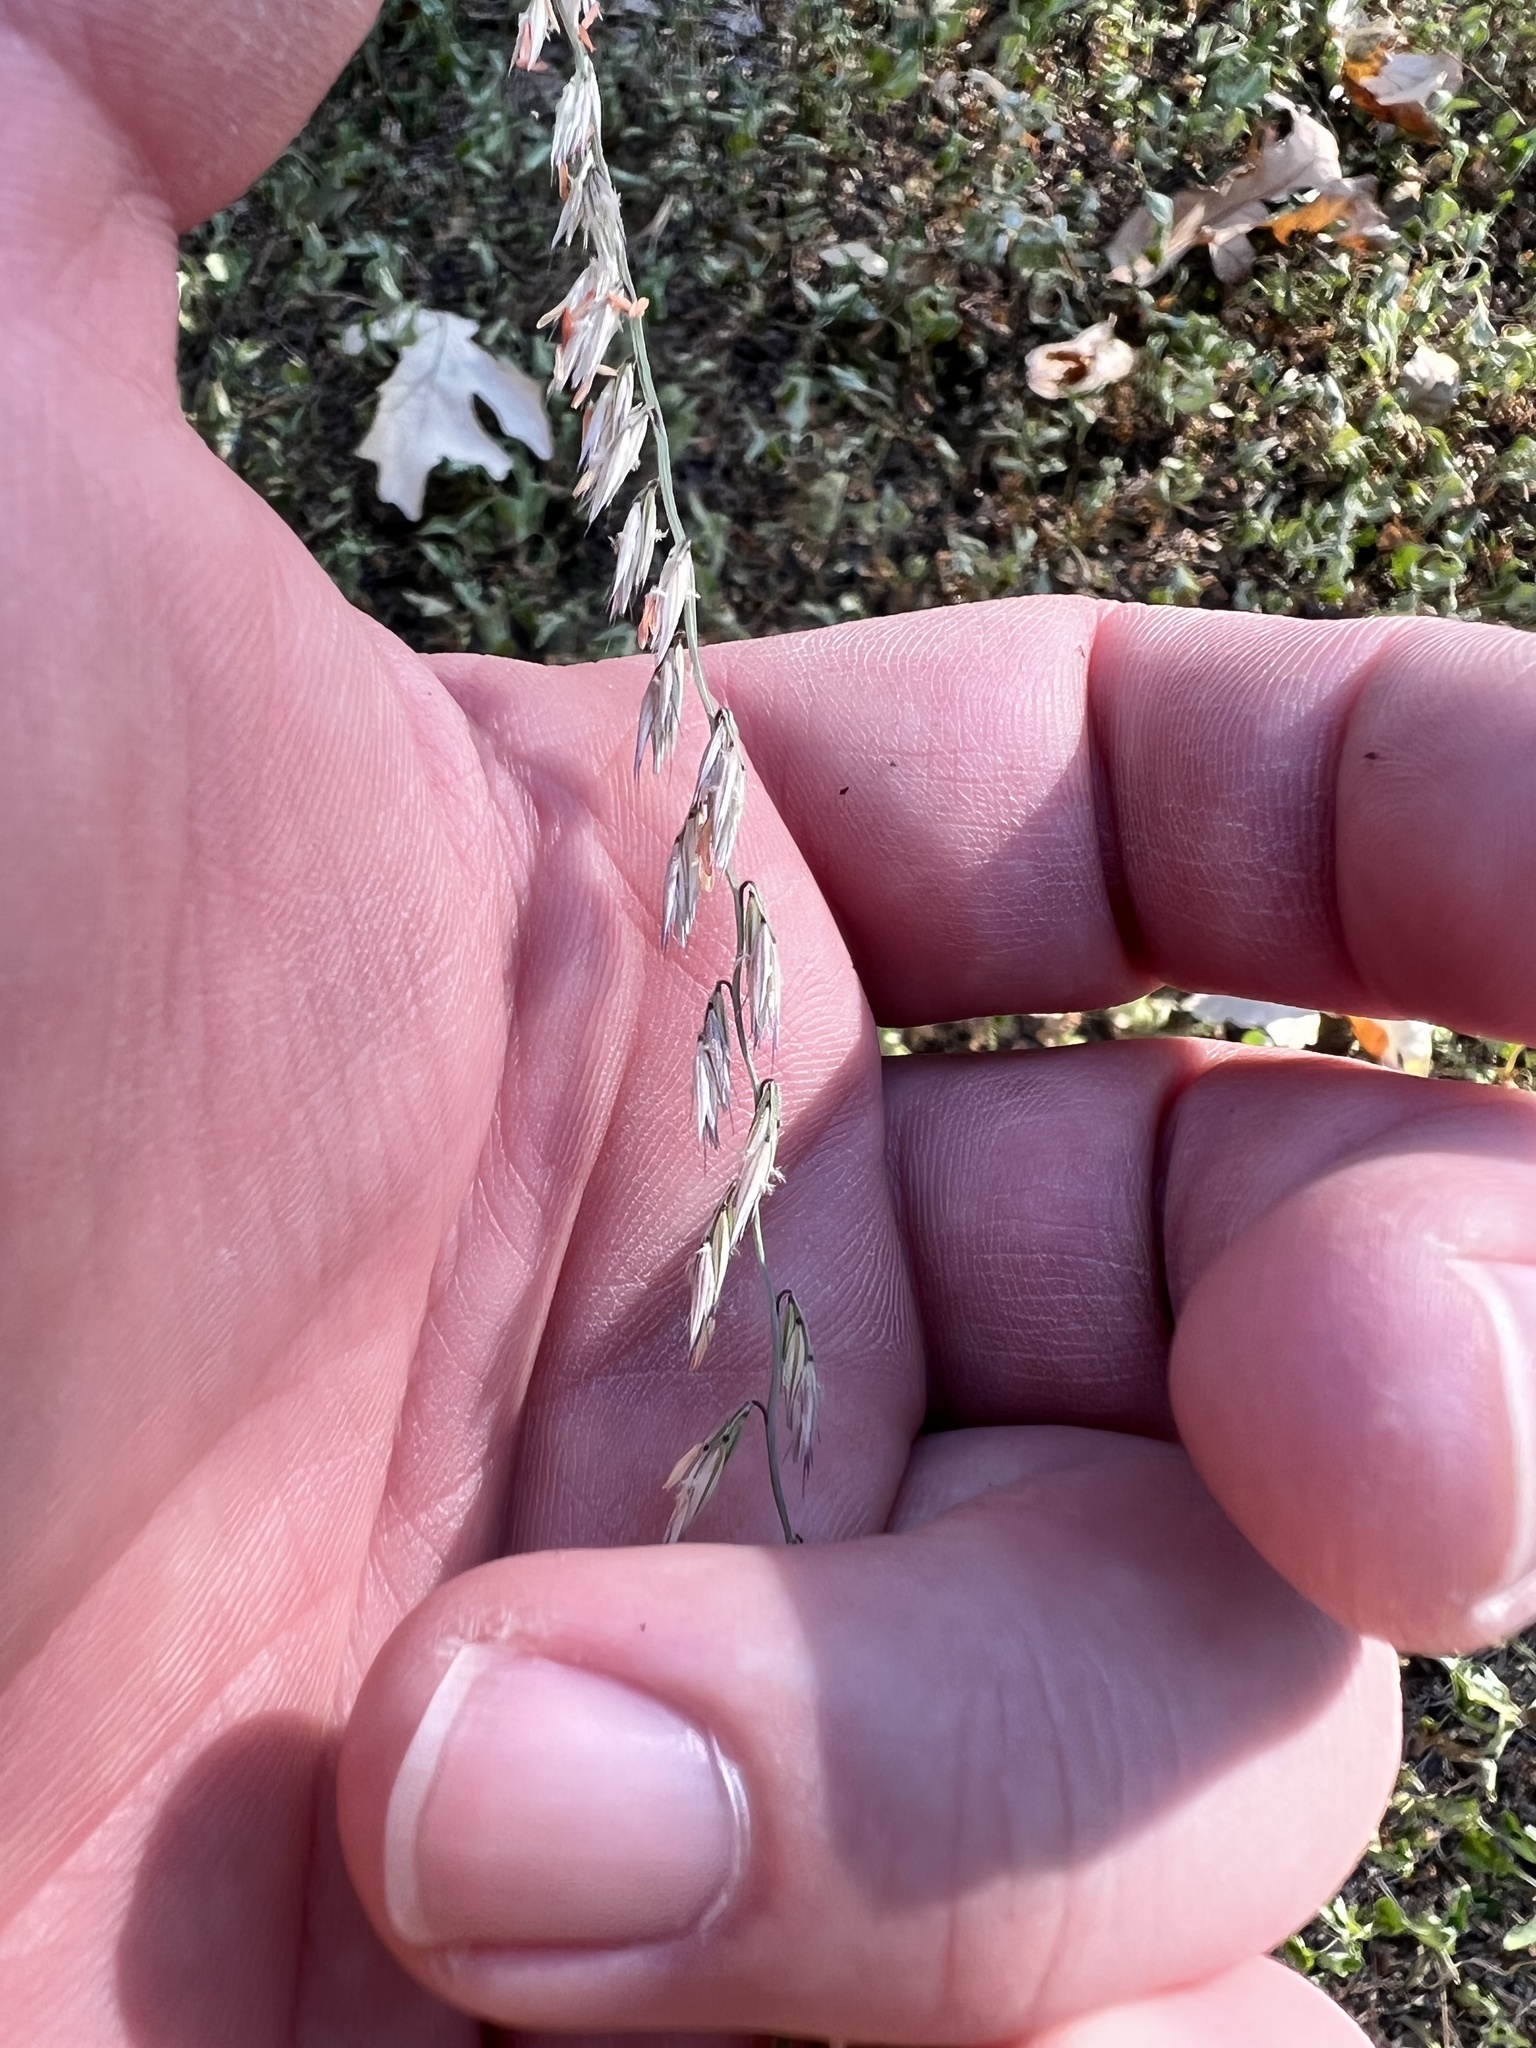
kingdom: Plantae
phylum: Tracheophyta
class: Liliopsida
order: Poales
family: Poaceae
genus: Bouteloua
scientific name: Bouteloua curtipendula
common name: Side-oats grama
